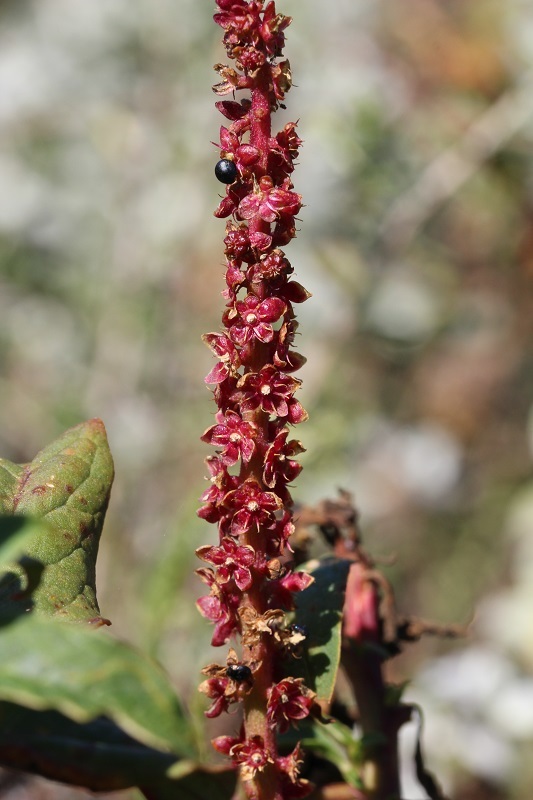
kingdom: Plantae
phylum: Tracheophyta
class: Magnoliopsida
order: Caryophyllales
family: Phytolaccaceae
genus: Phytolacca
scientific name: Phytolacca icosandra
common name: Button pokeweed
